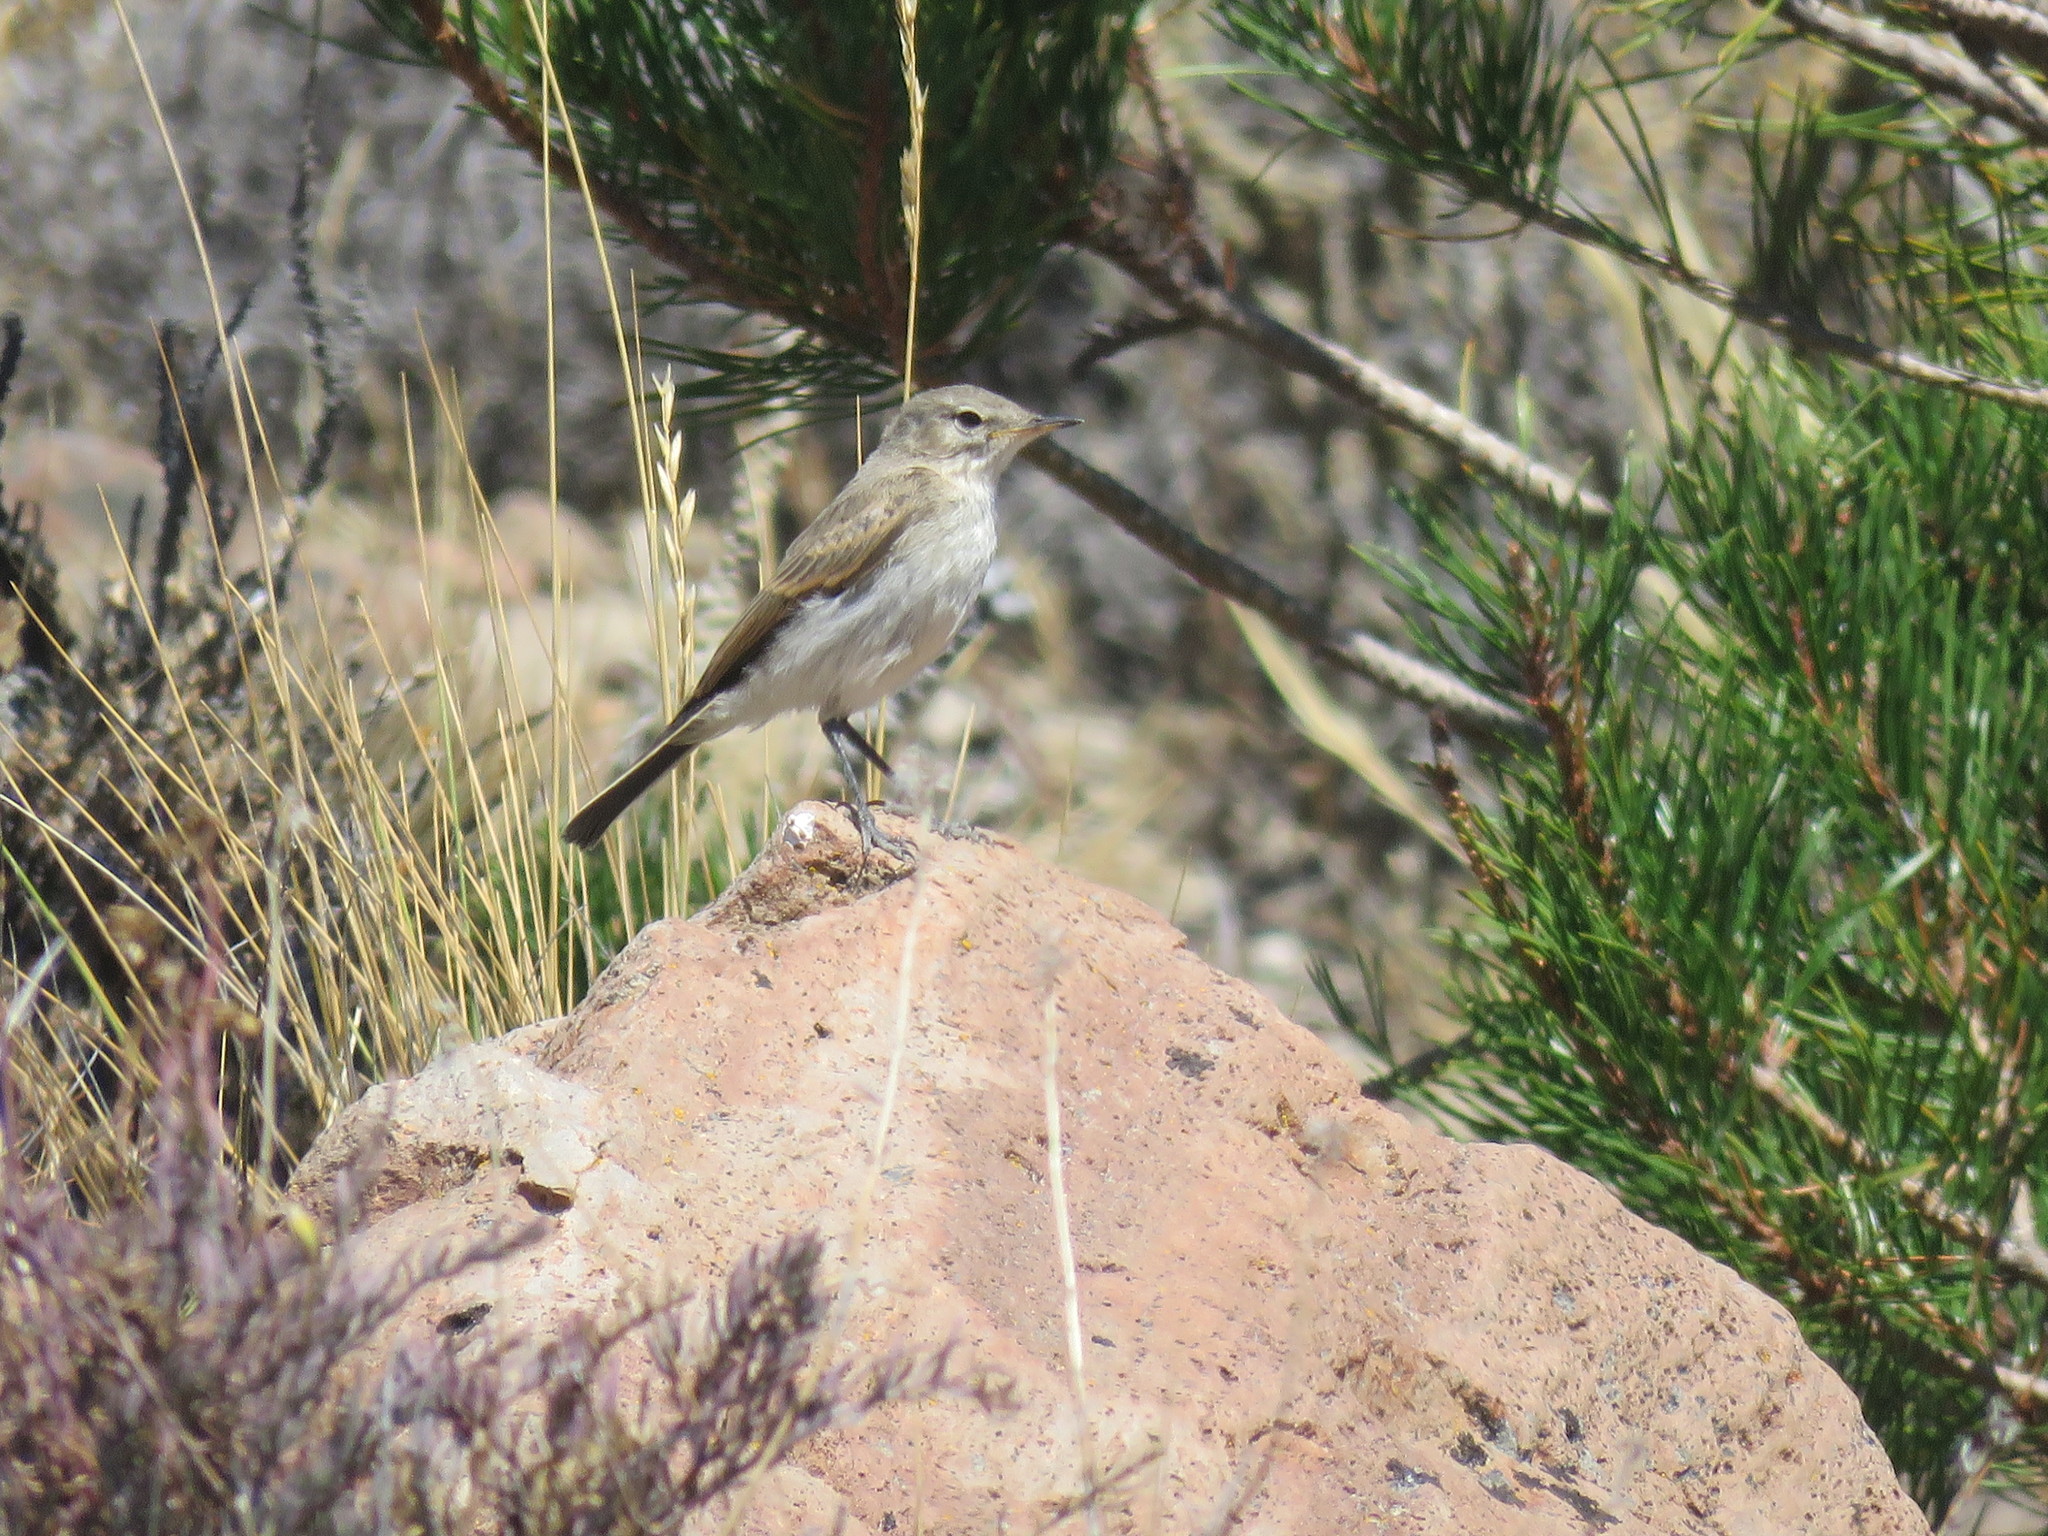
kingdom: Animalia
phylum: Chordata
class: Aves
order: Passeriformes
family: Tyrannidae
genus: Muscisaxicola
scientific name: Muscisaxicola maculirostris
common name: Spot-billed ground tyrant
